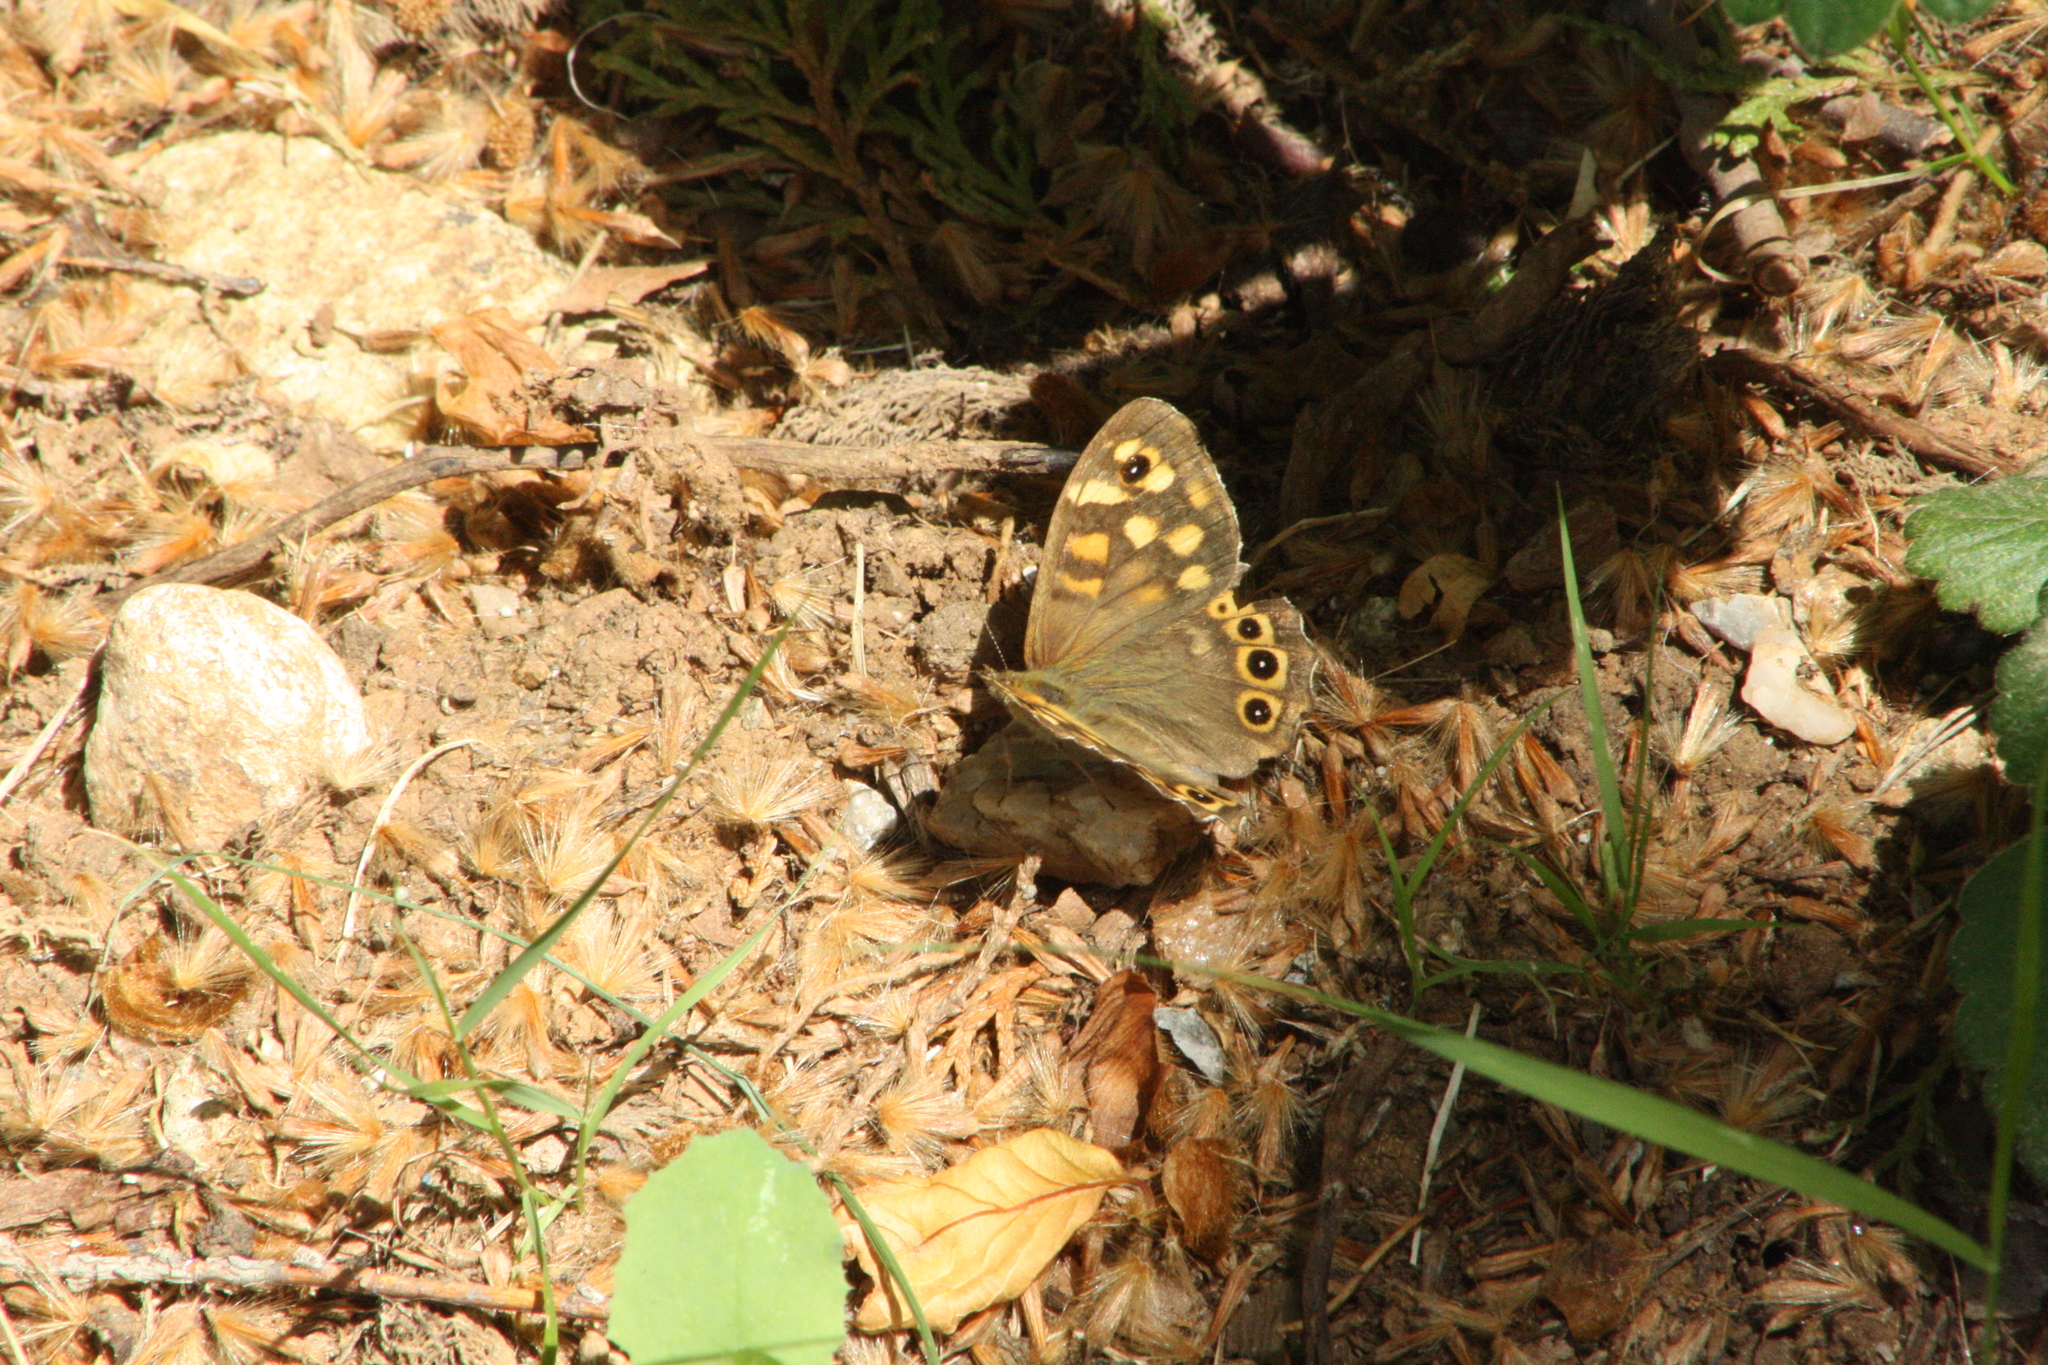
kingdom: Animalia
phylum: Arthropoda
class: Insecta
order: Lepidoptera
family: Nymphalidae
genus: Pararge
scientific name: Pararge aegeria
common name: Speckled wood
